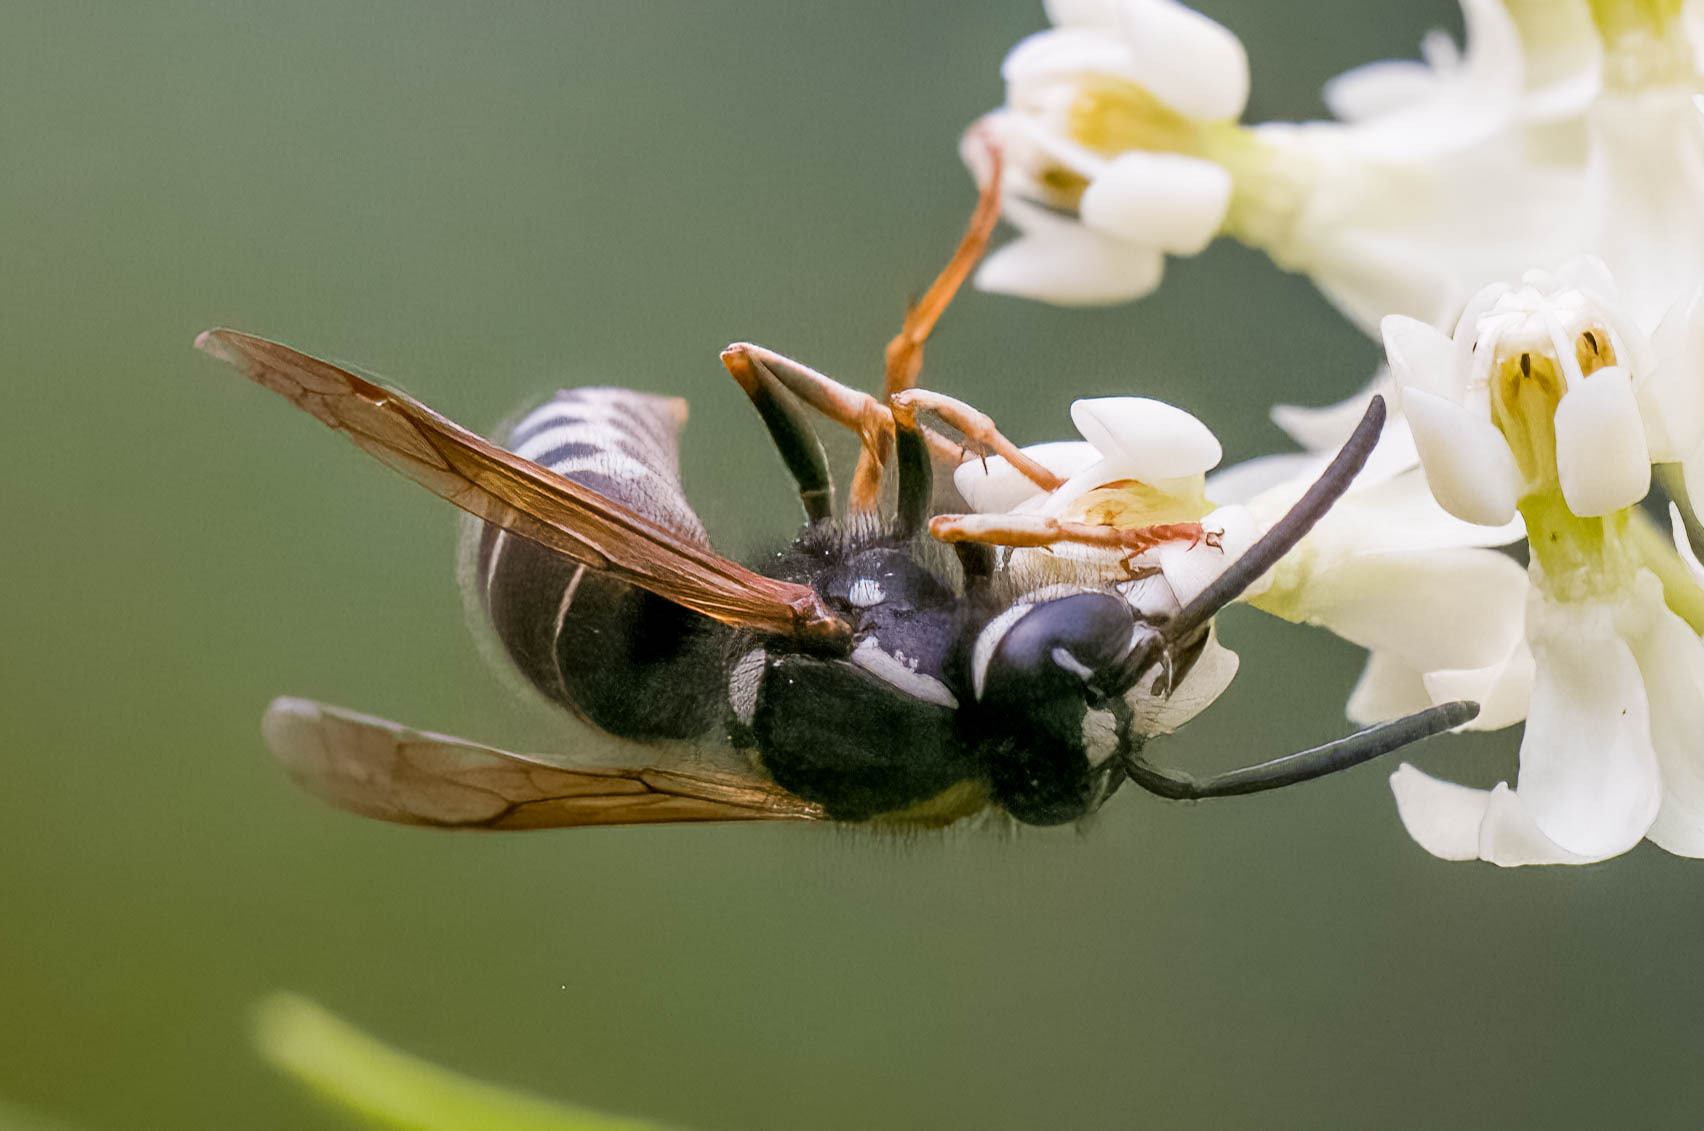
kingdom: Animalia
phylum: Arthropoda
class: Insecta
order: Hymenoptera
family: Vespidae
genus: Vespula
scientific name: Vespula consobrina
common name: Blackjacket
